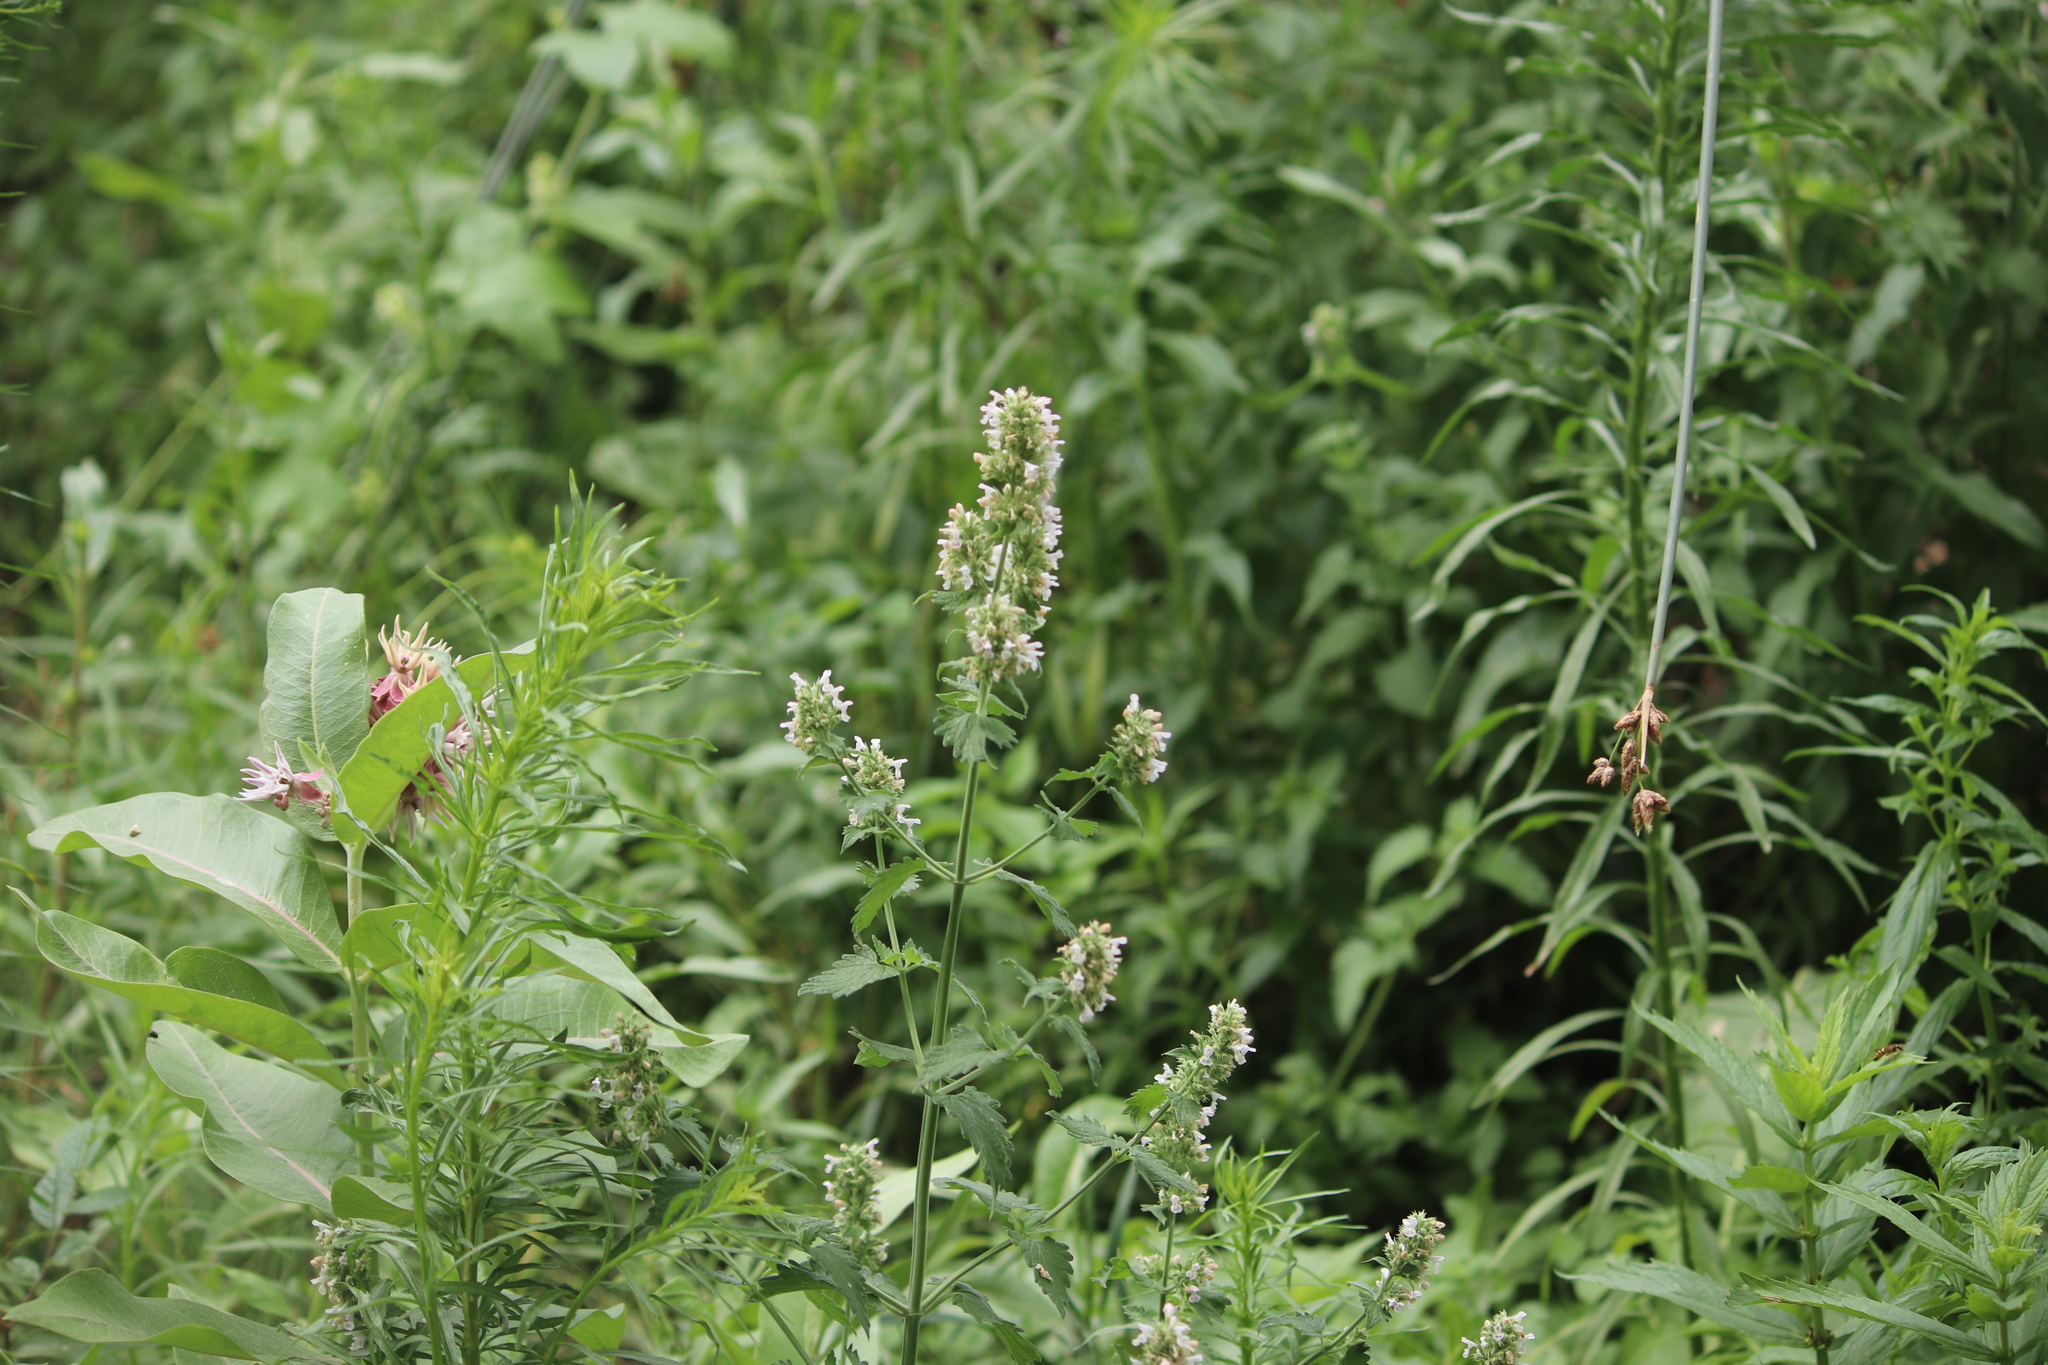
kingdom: Plantae
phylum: Tracheophyta
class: Magnoliopsida
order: Lamiales
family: Lamiaceae
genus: Nepeta
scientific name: Nepeta cataria
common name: Catnip
